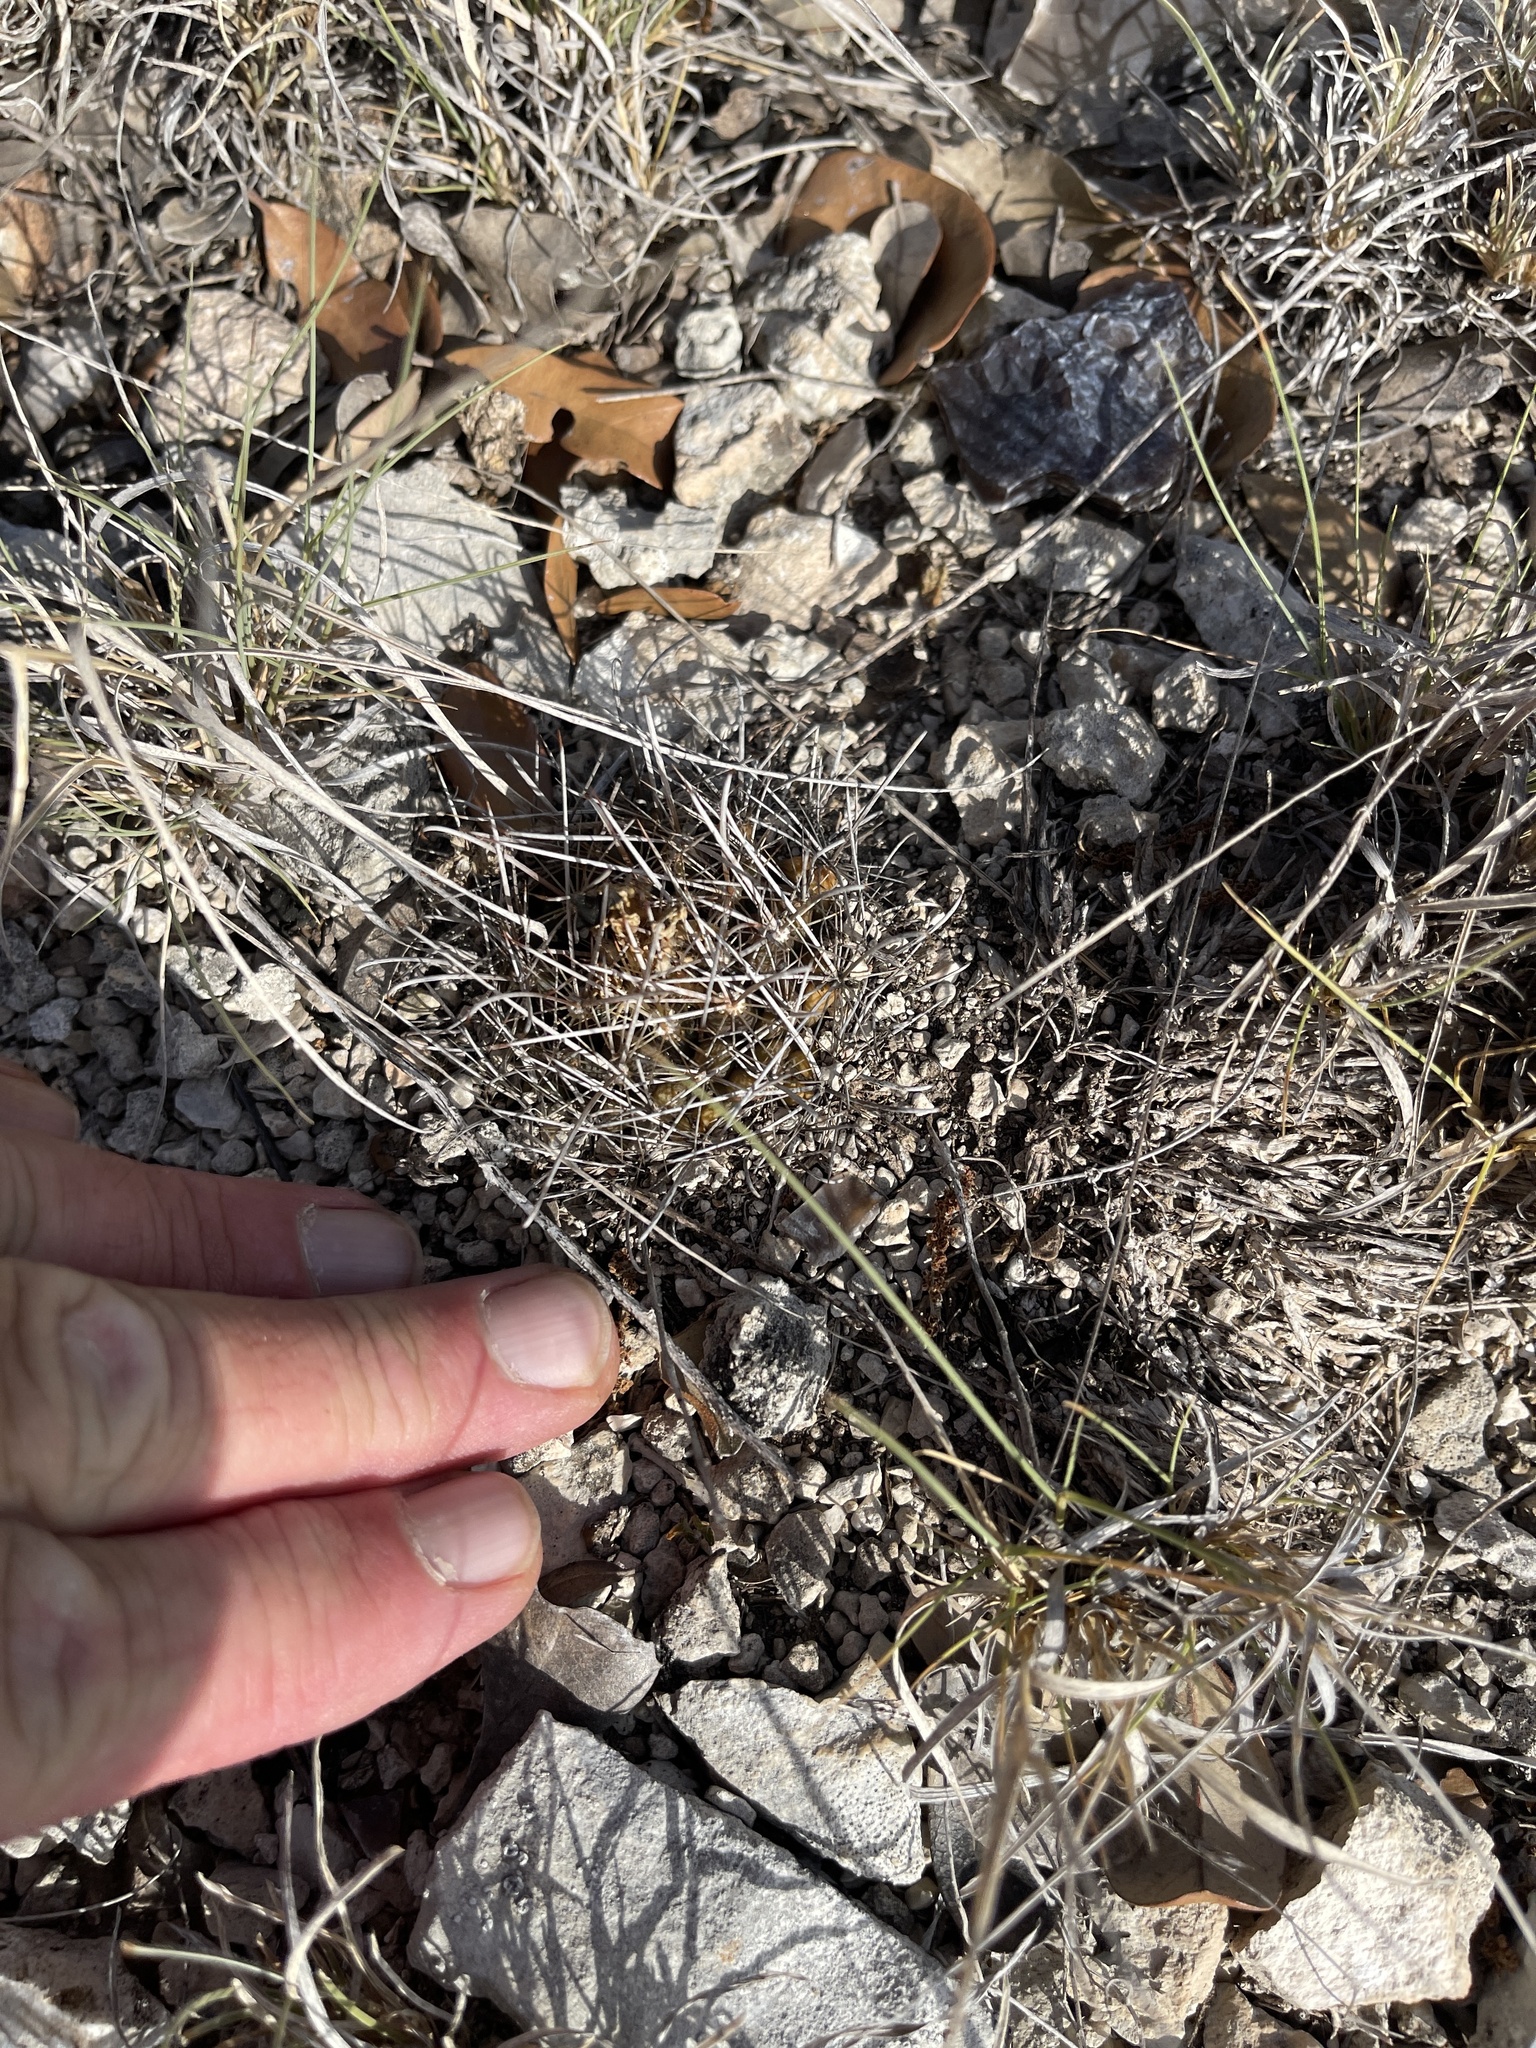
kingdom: Plantae
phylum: Tracheophyta
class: Magnoliopsida
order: Caryophyllales
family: Cactaceae
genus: Sclerocactus
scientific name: Sclerocactus brevihamatus
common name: Engelmann's fishhook cactus
